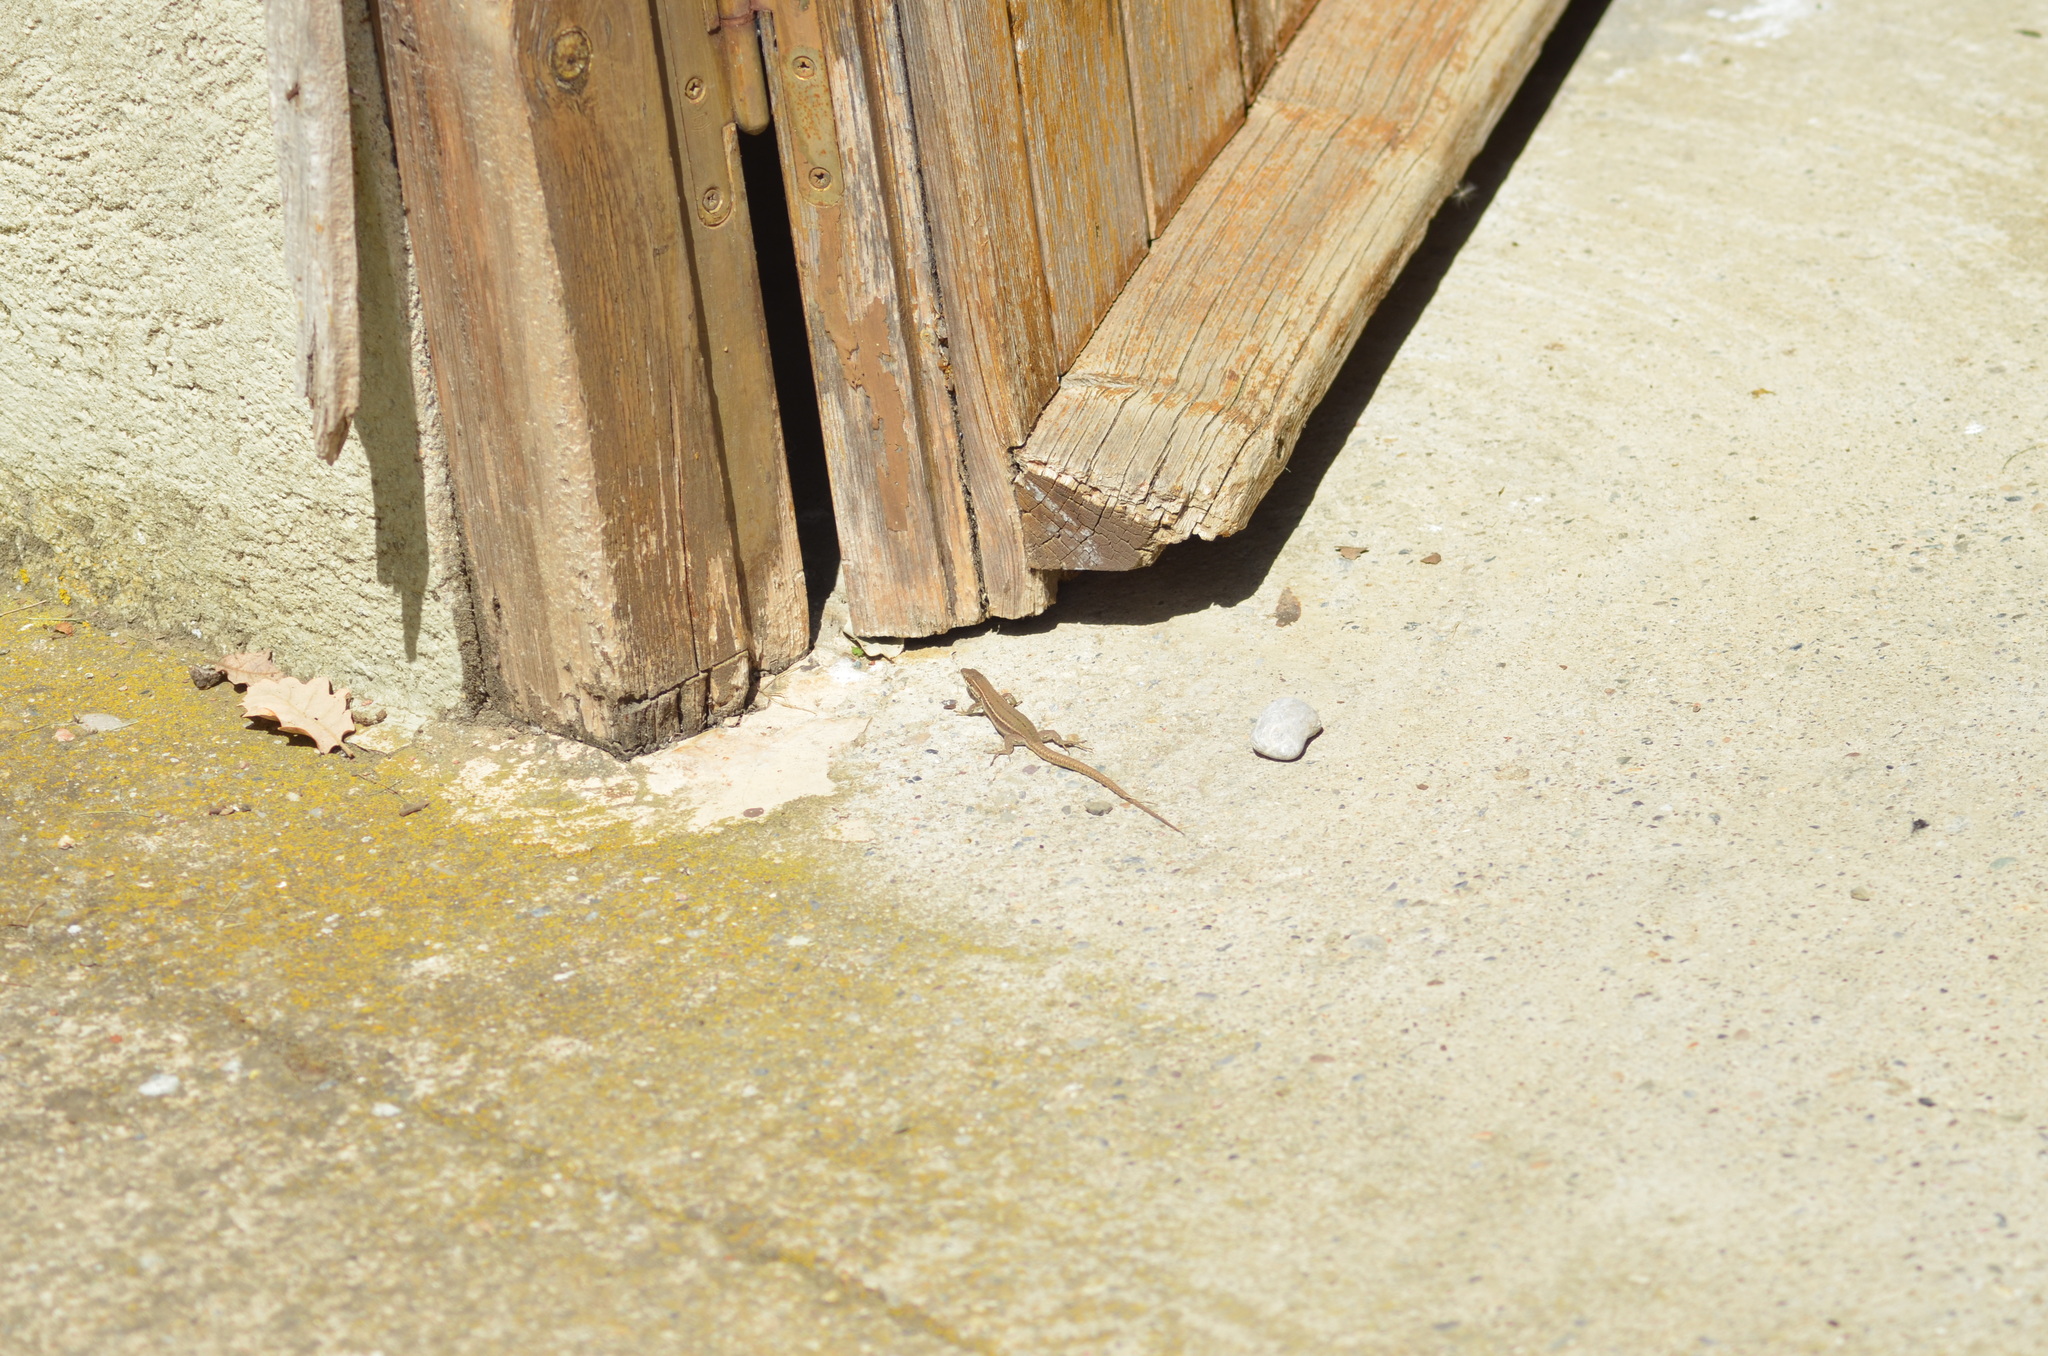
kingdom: Animalia
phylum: Chordata
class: Squamata
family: Lacertidae
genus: Podarcis
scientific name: Podarcis liolepis
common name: Catalonian wall lizard
